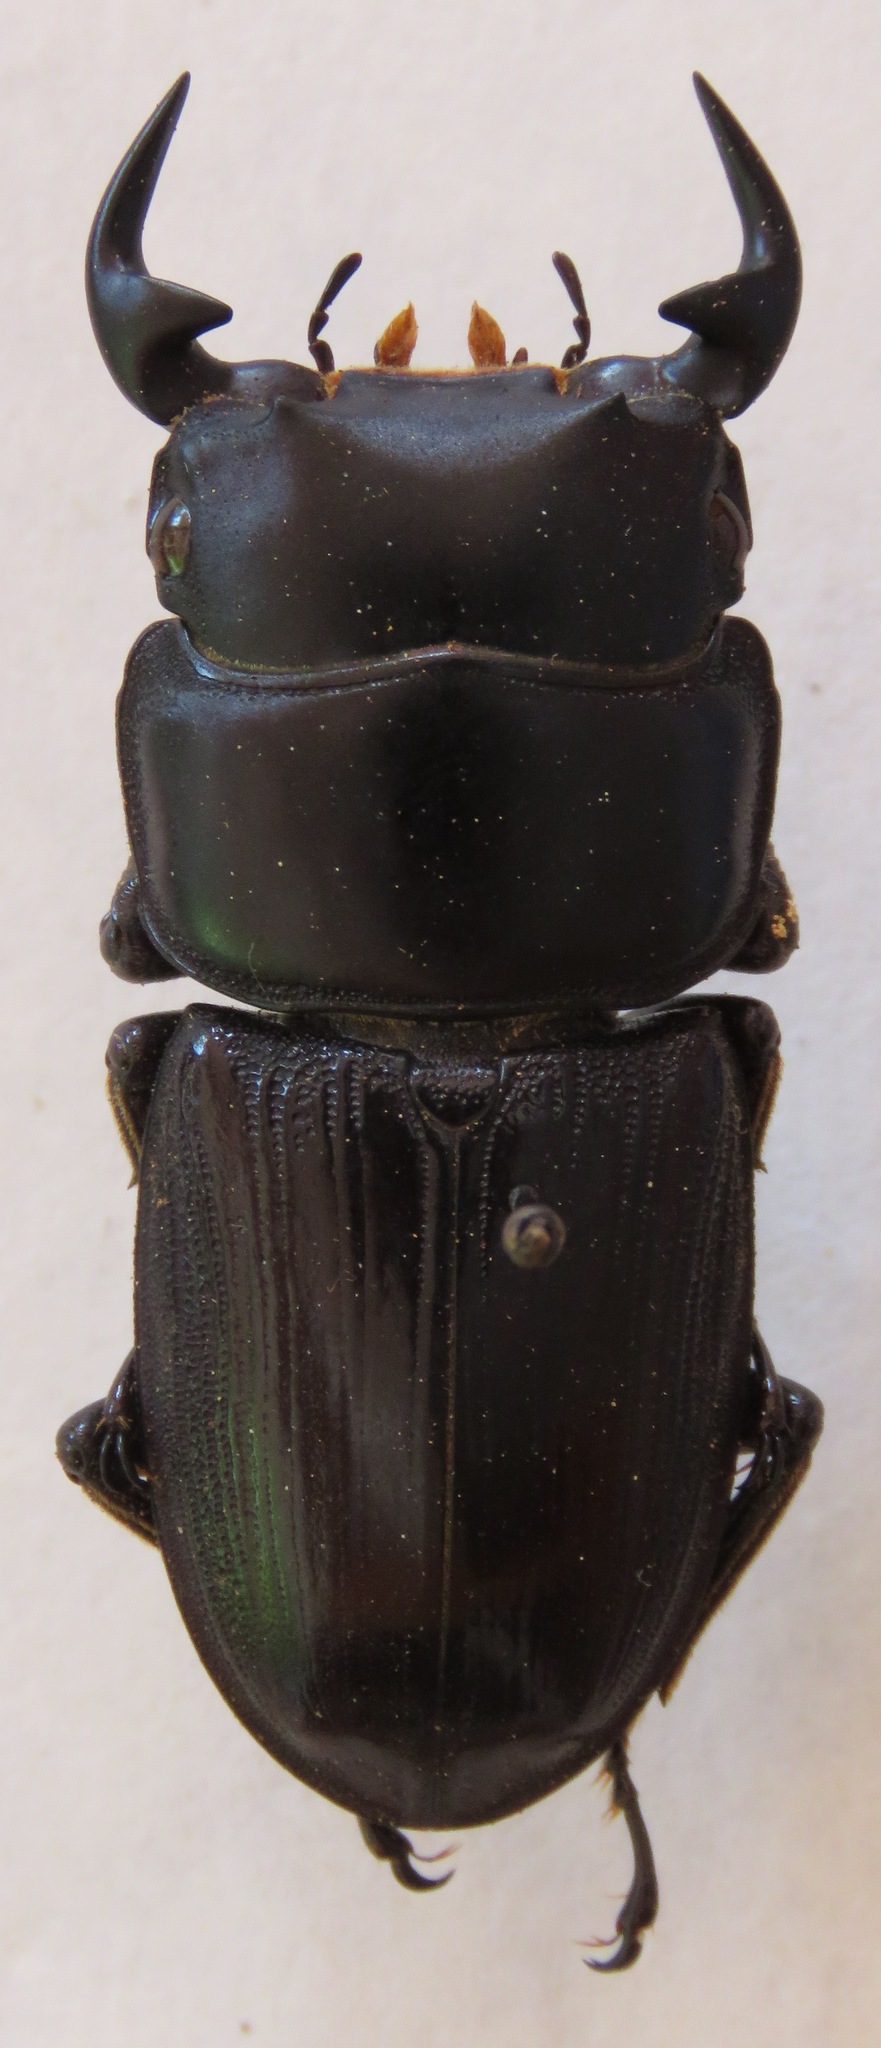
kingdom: Animalia
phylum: Arthropoda
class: Insecta
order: Coleoptera
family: Lucanidae
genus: Dorcus
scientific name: Dorcus curvidens
